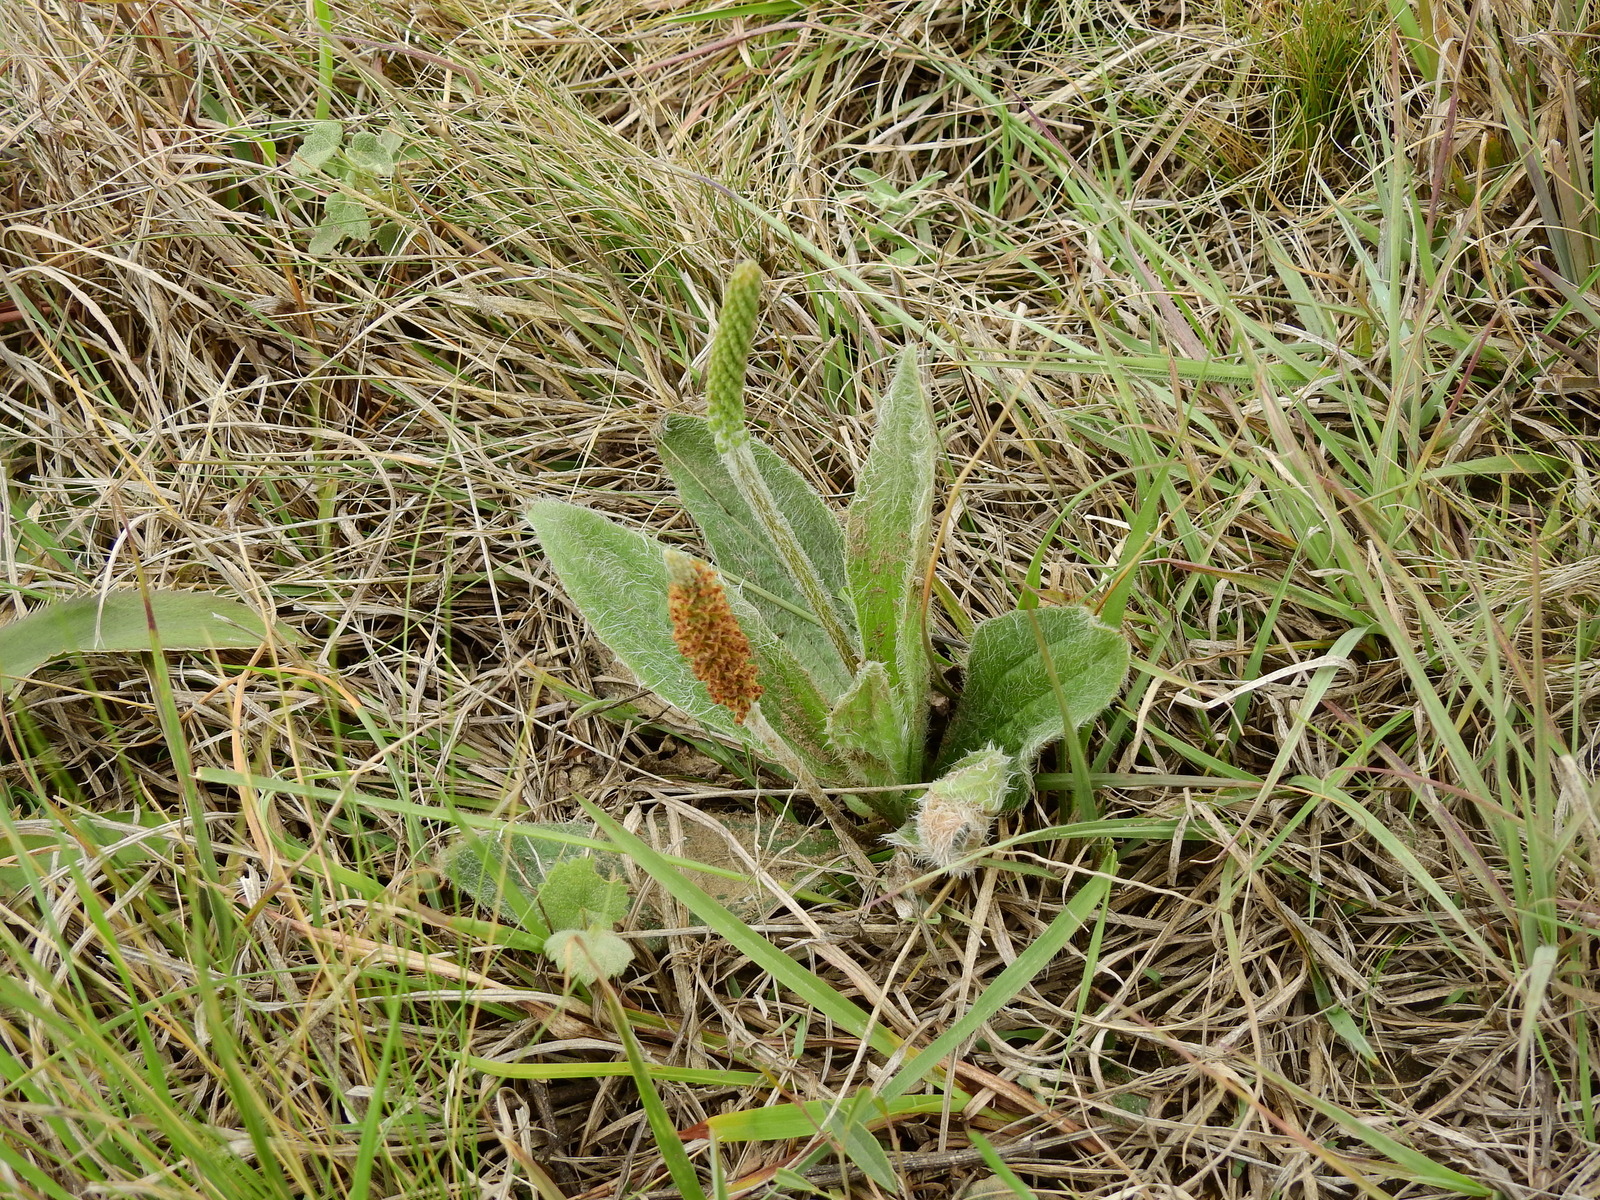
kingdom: Plantae
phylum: Tracheophyta
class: Magnoliopsida
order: Lamiales
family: Plantaginaceae
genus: Plantago
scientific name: Plantago tomentosa
